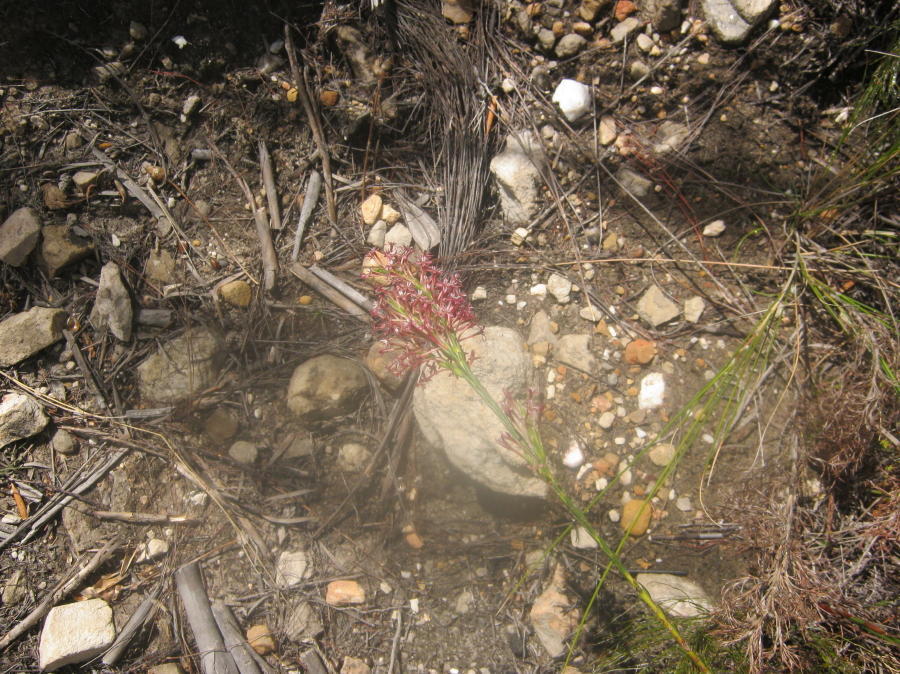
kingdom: Plantae
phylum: Tracheophyta
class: Magnoliopsida
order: Malvales
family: Thymelaeaceae
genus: Struthiola
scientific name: Struthiola macowanii
